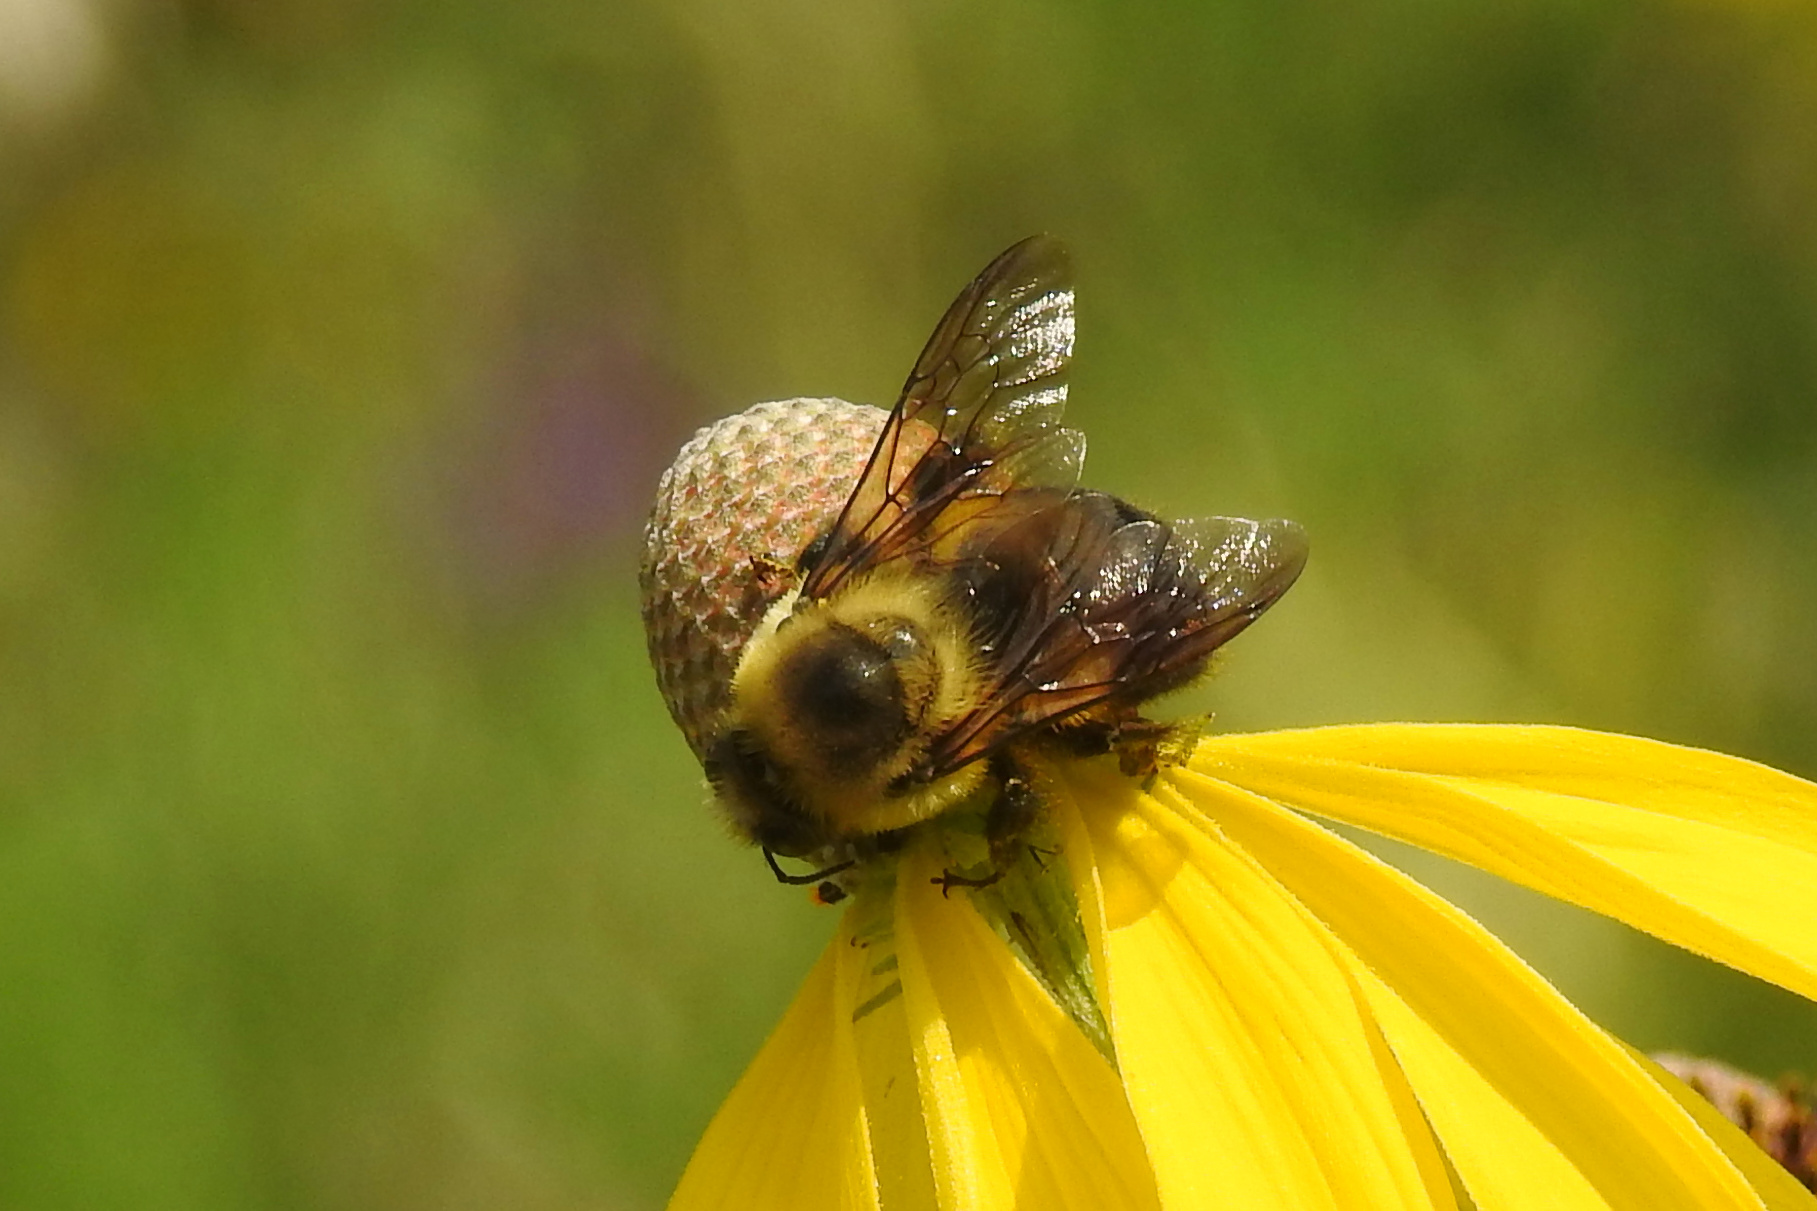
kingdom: Animalia
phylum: Arthropoda
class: Insecta
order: Hymenoptera
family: Apidae
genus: Bombus
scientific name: Bombus griseocollis
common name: Brown-belted bumble bee
